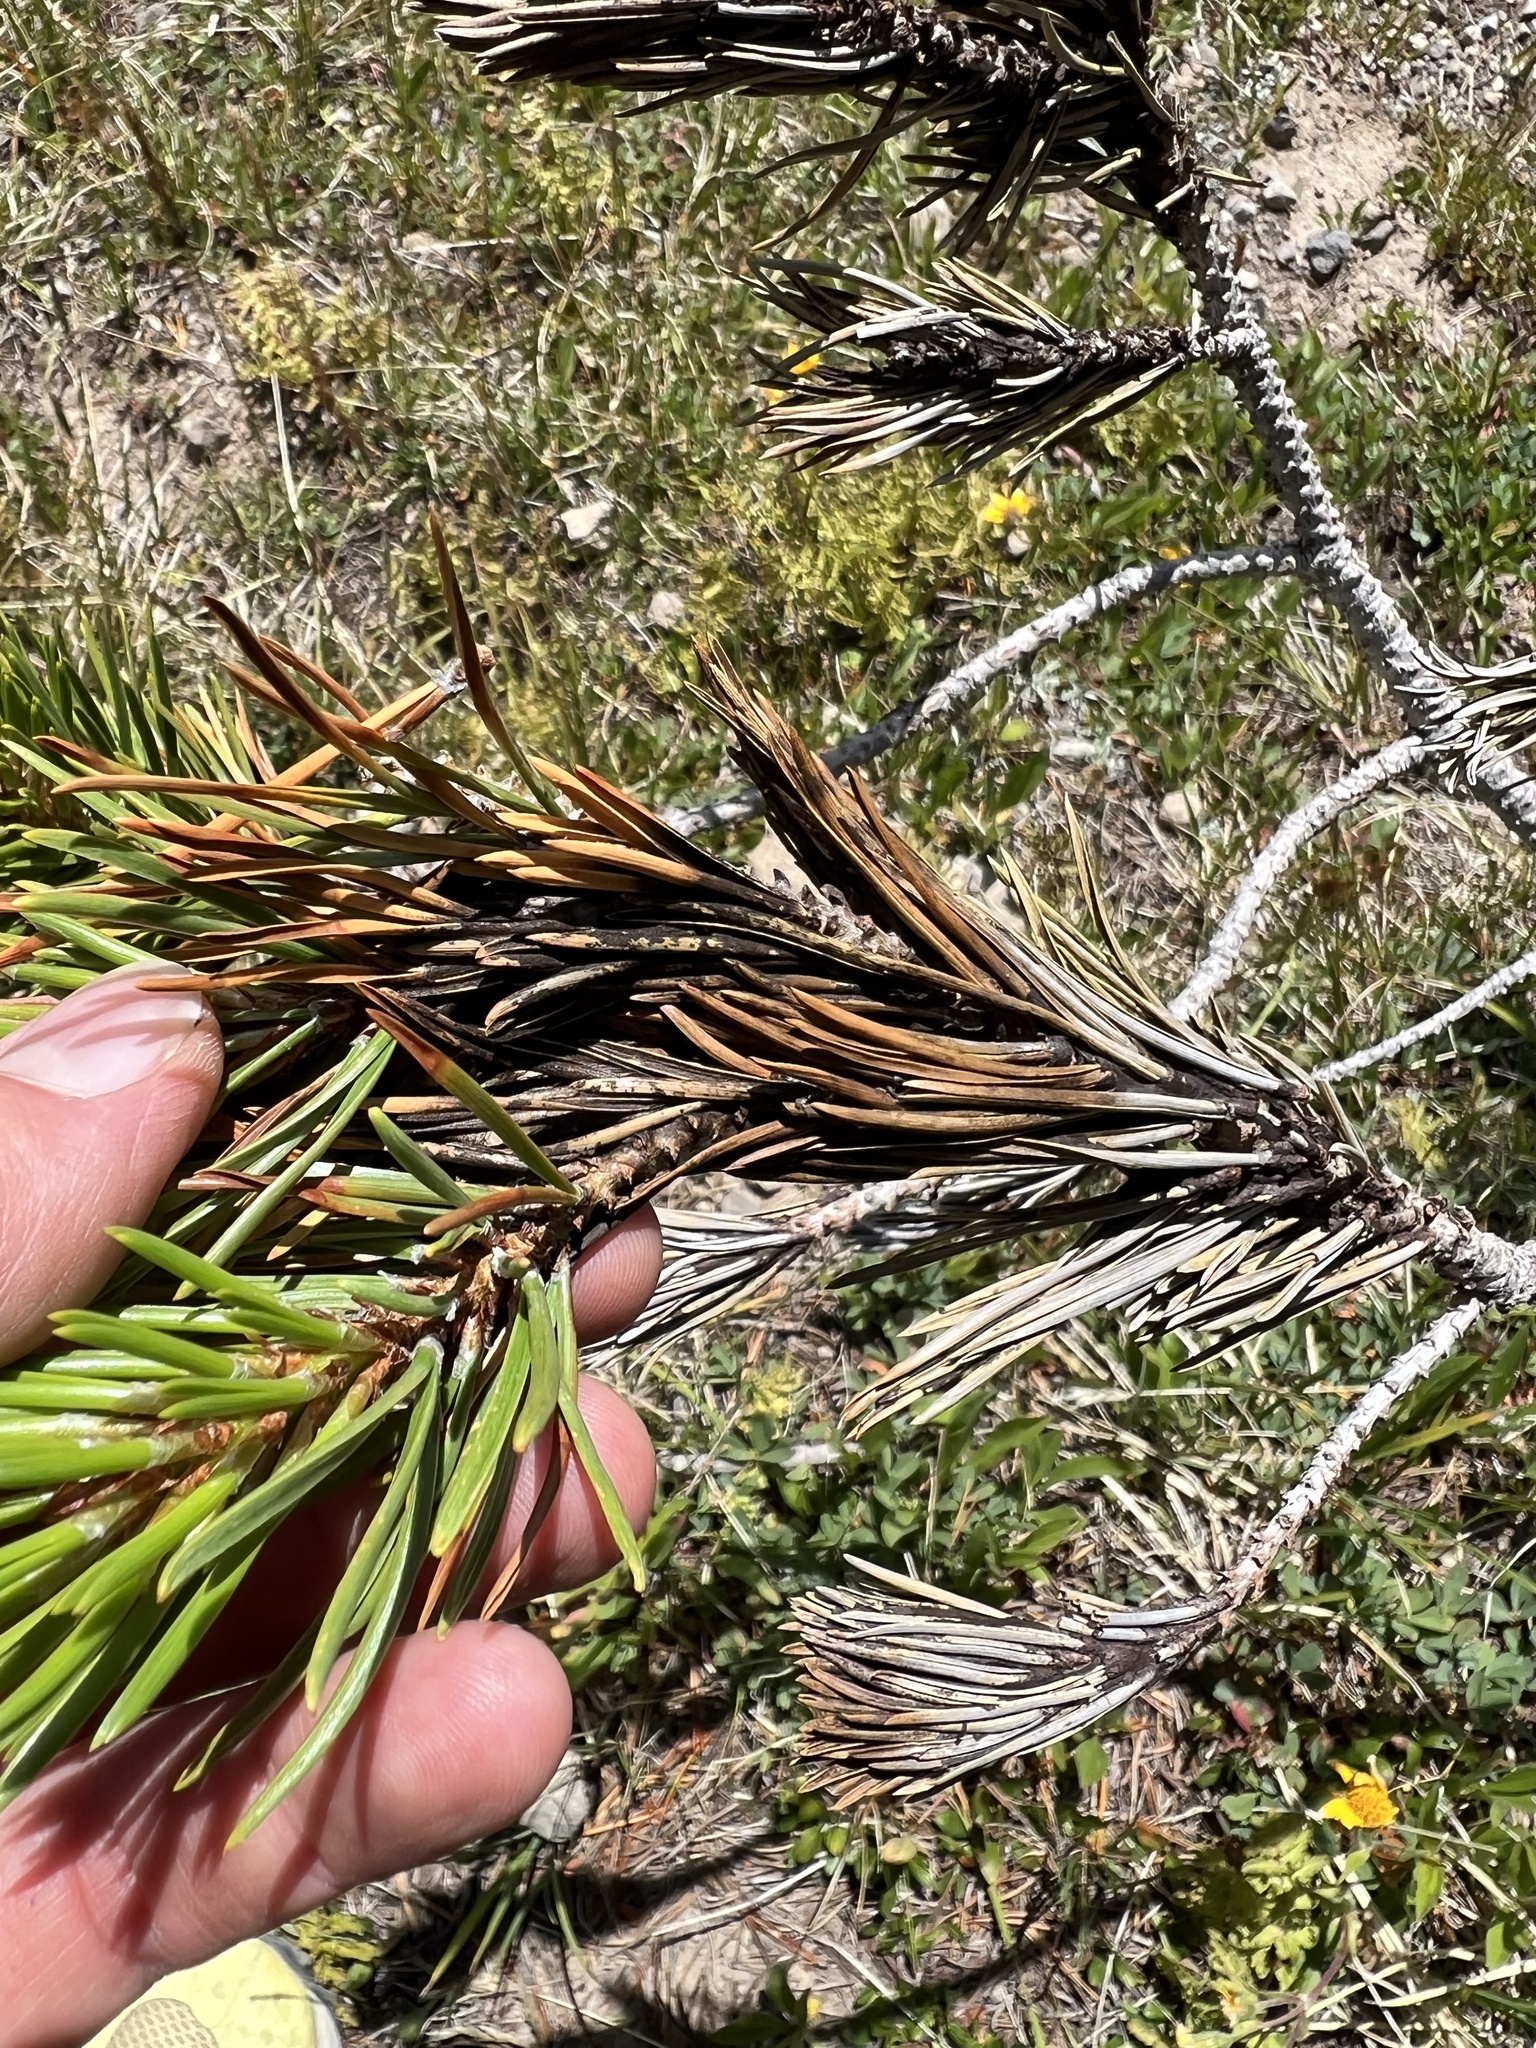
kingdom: Plantae
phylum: Tracheophyta
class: Pinopsida
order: Pinales
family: Pinaceae
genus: Pinus
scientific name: Pinus contorta
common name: Lodgepole pine
